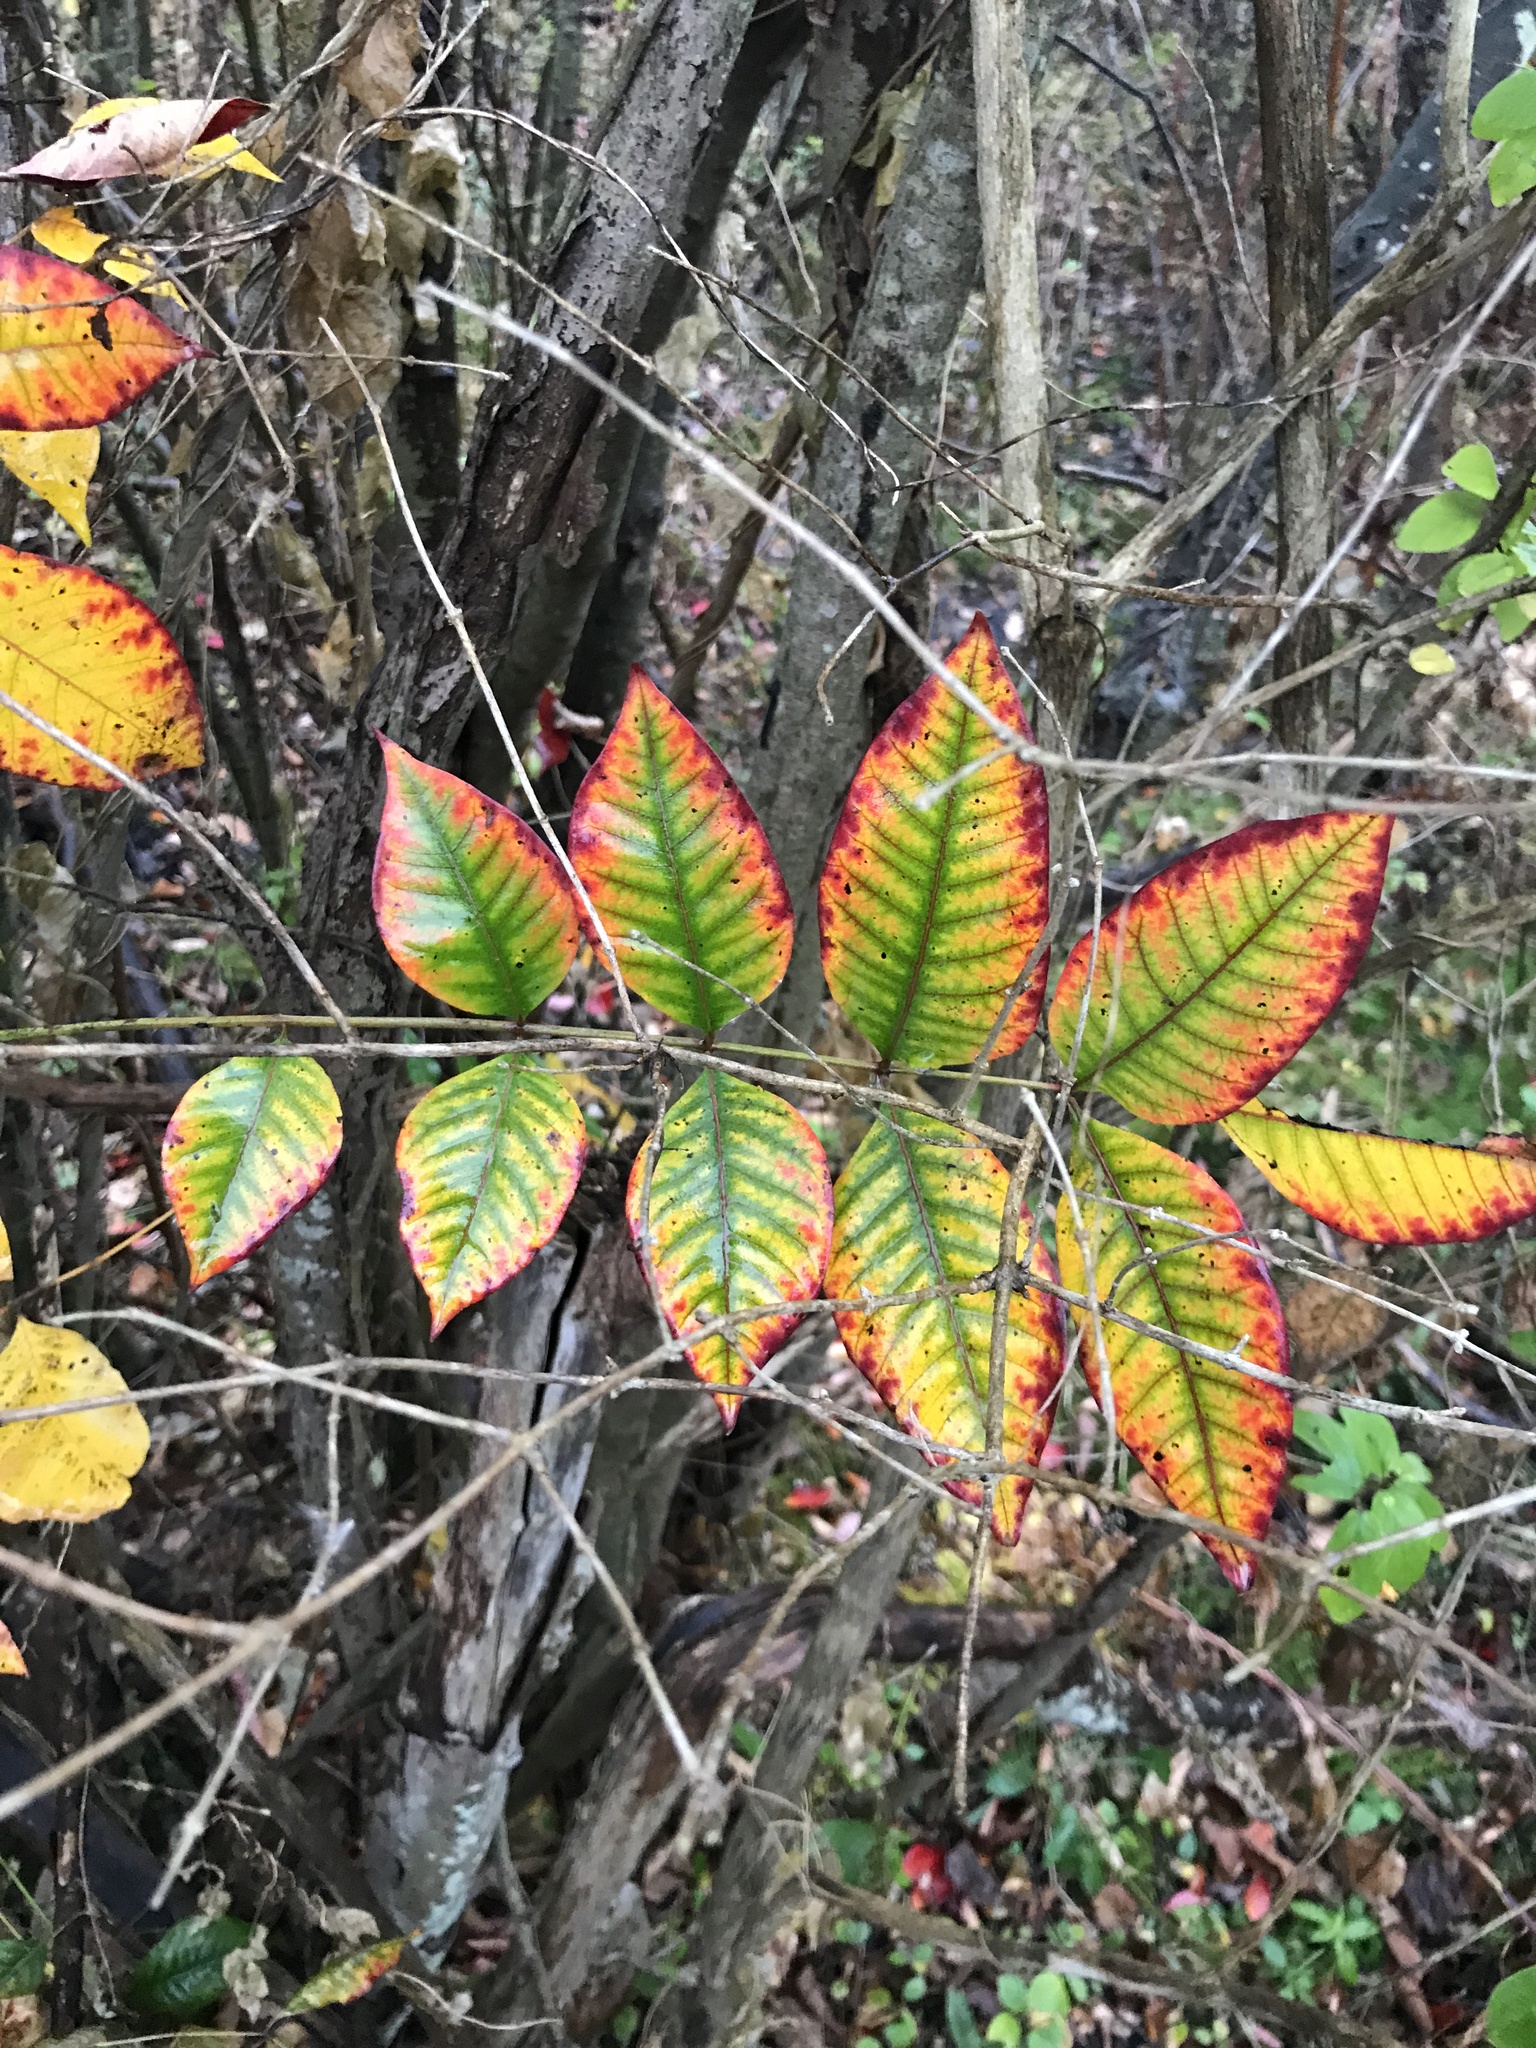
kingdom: Plantae
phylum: Tracheophyta
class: Magnoliopsida
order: Sapindales
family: Anacardiaceae
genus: Toxicodendron
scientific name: Toxicodendron vernix
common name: Poison sumac
